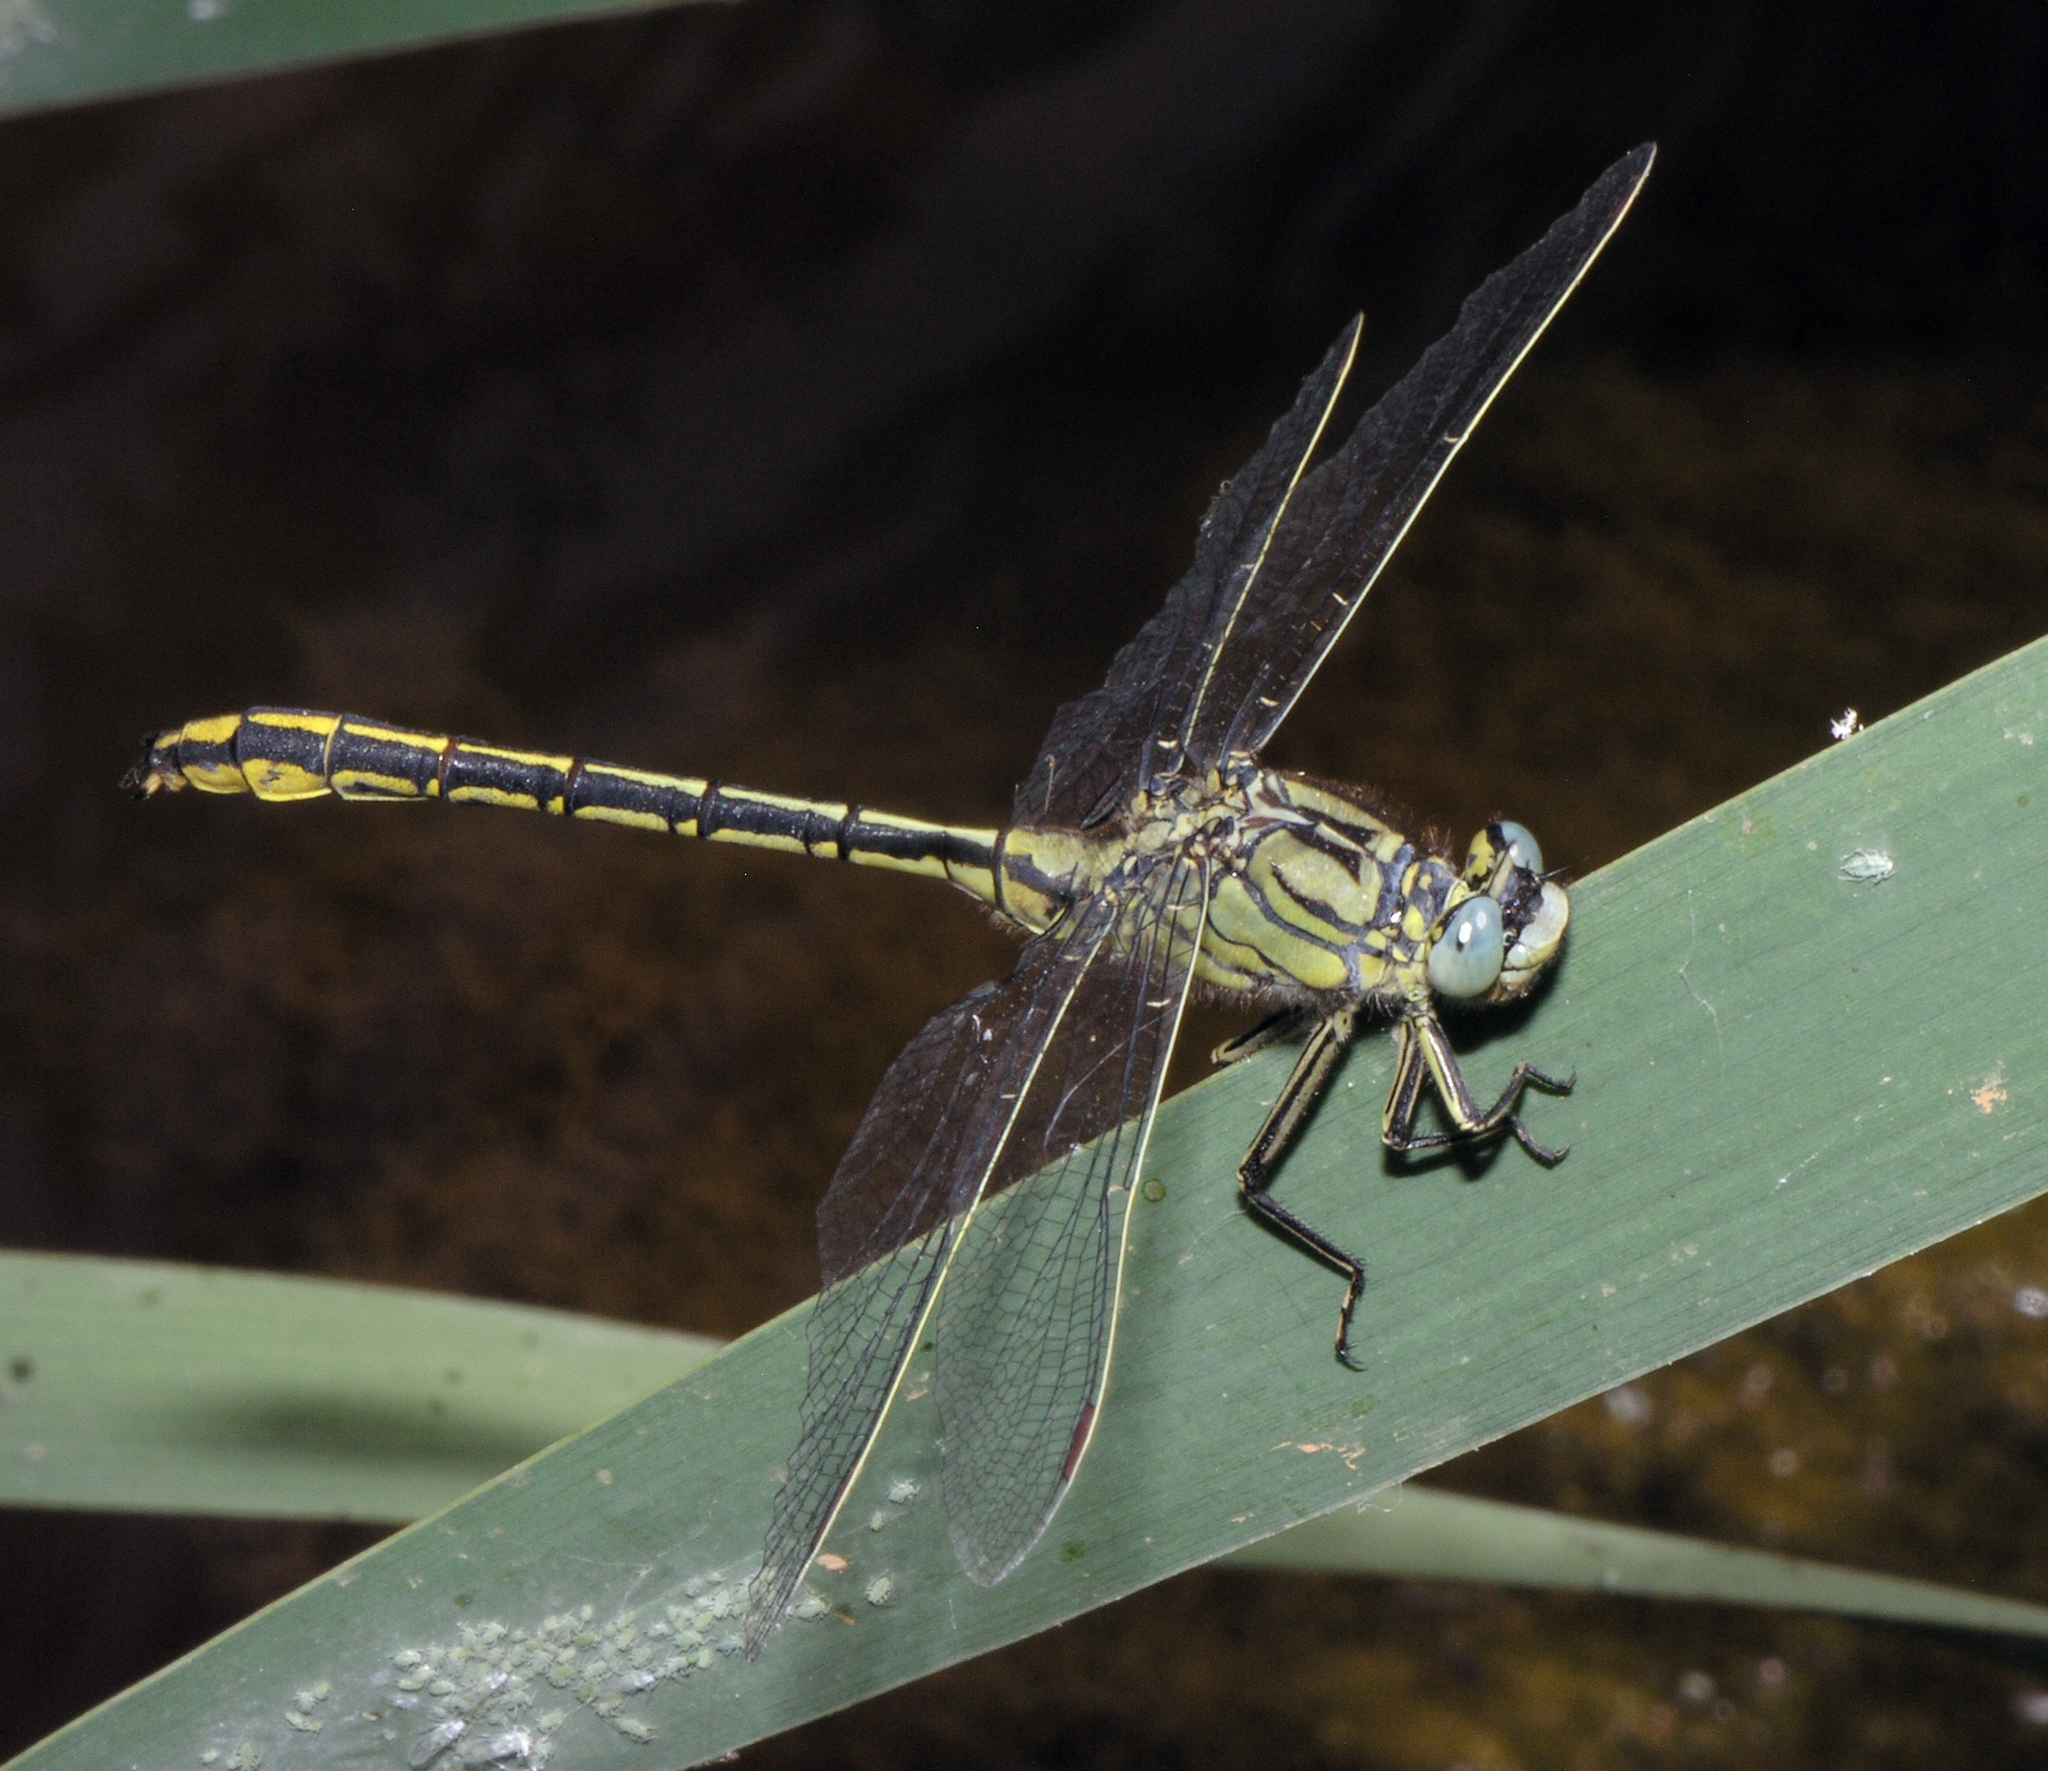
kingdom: Animalia
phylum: Arthropoda
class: Insecta
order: Odonata
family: Gomphidae
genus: Gomphus
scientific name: Gomphus pulchellus
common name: Western clubtail
